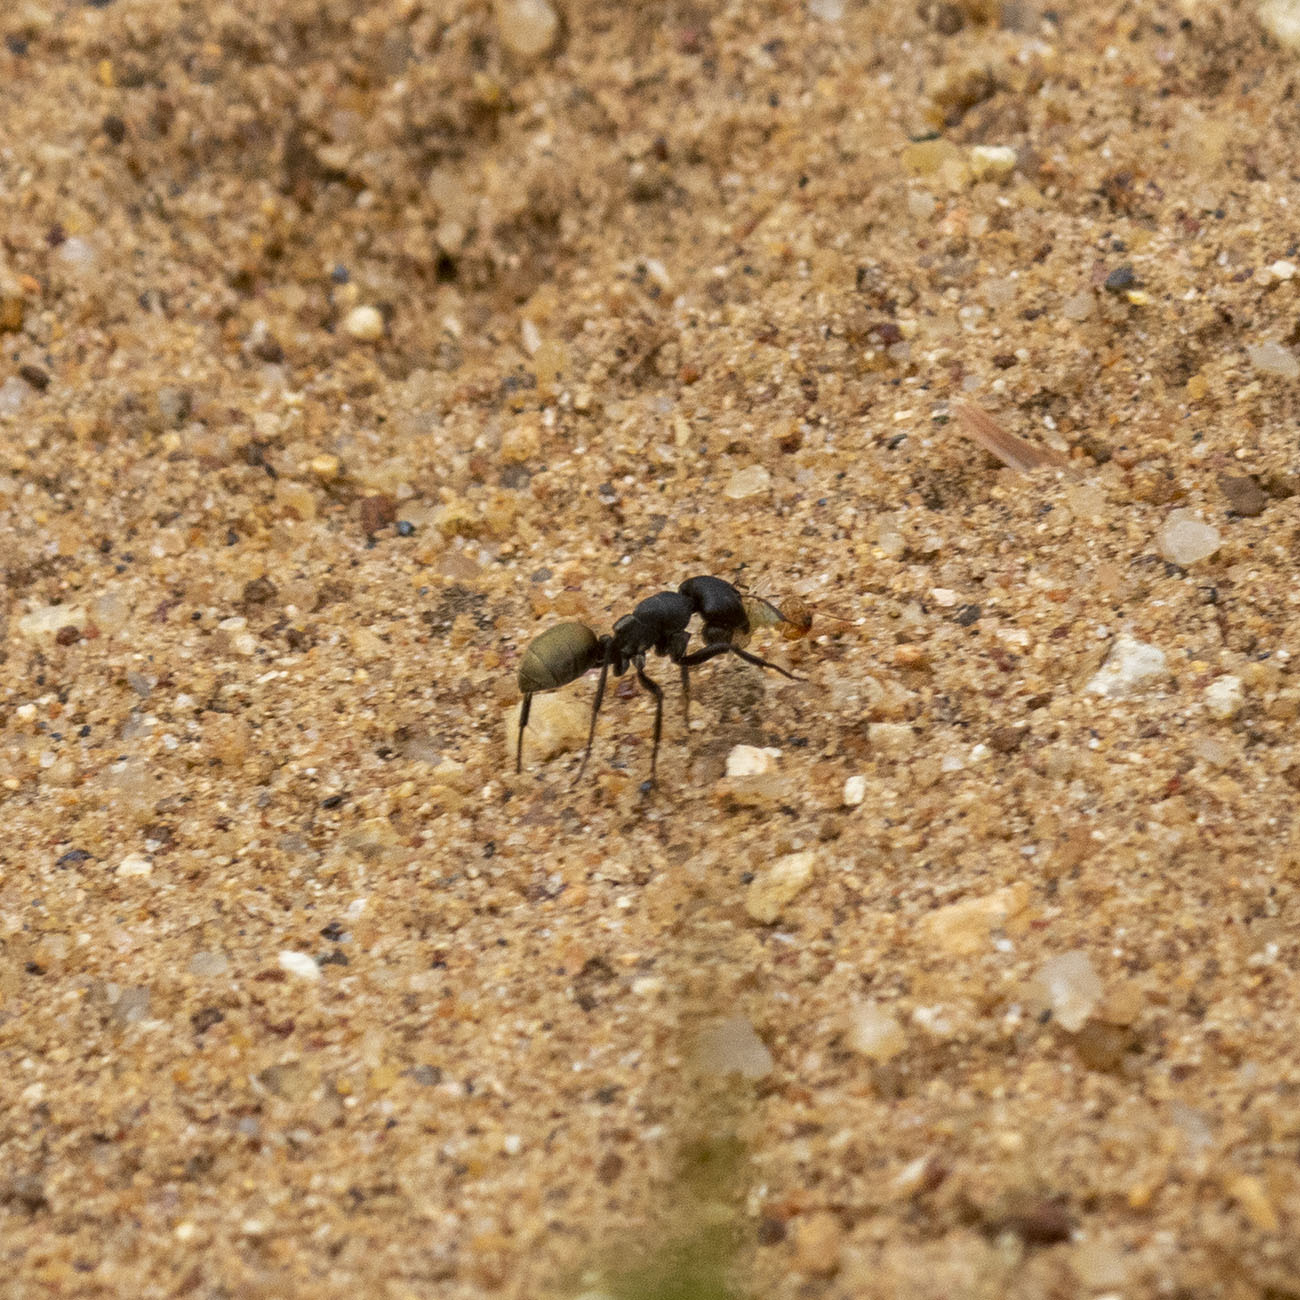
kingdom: Animalia
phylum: Arthropoda
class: Insecta
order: Hymenoptera
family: Formicidae
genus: Camponotus
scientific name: Camponotus sericeus
